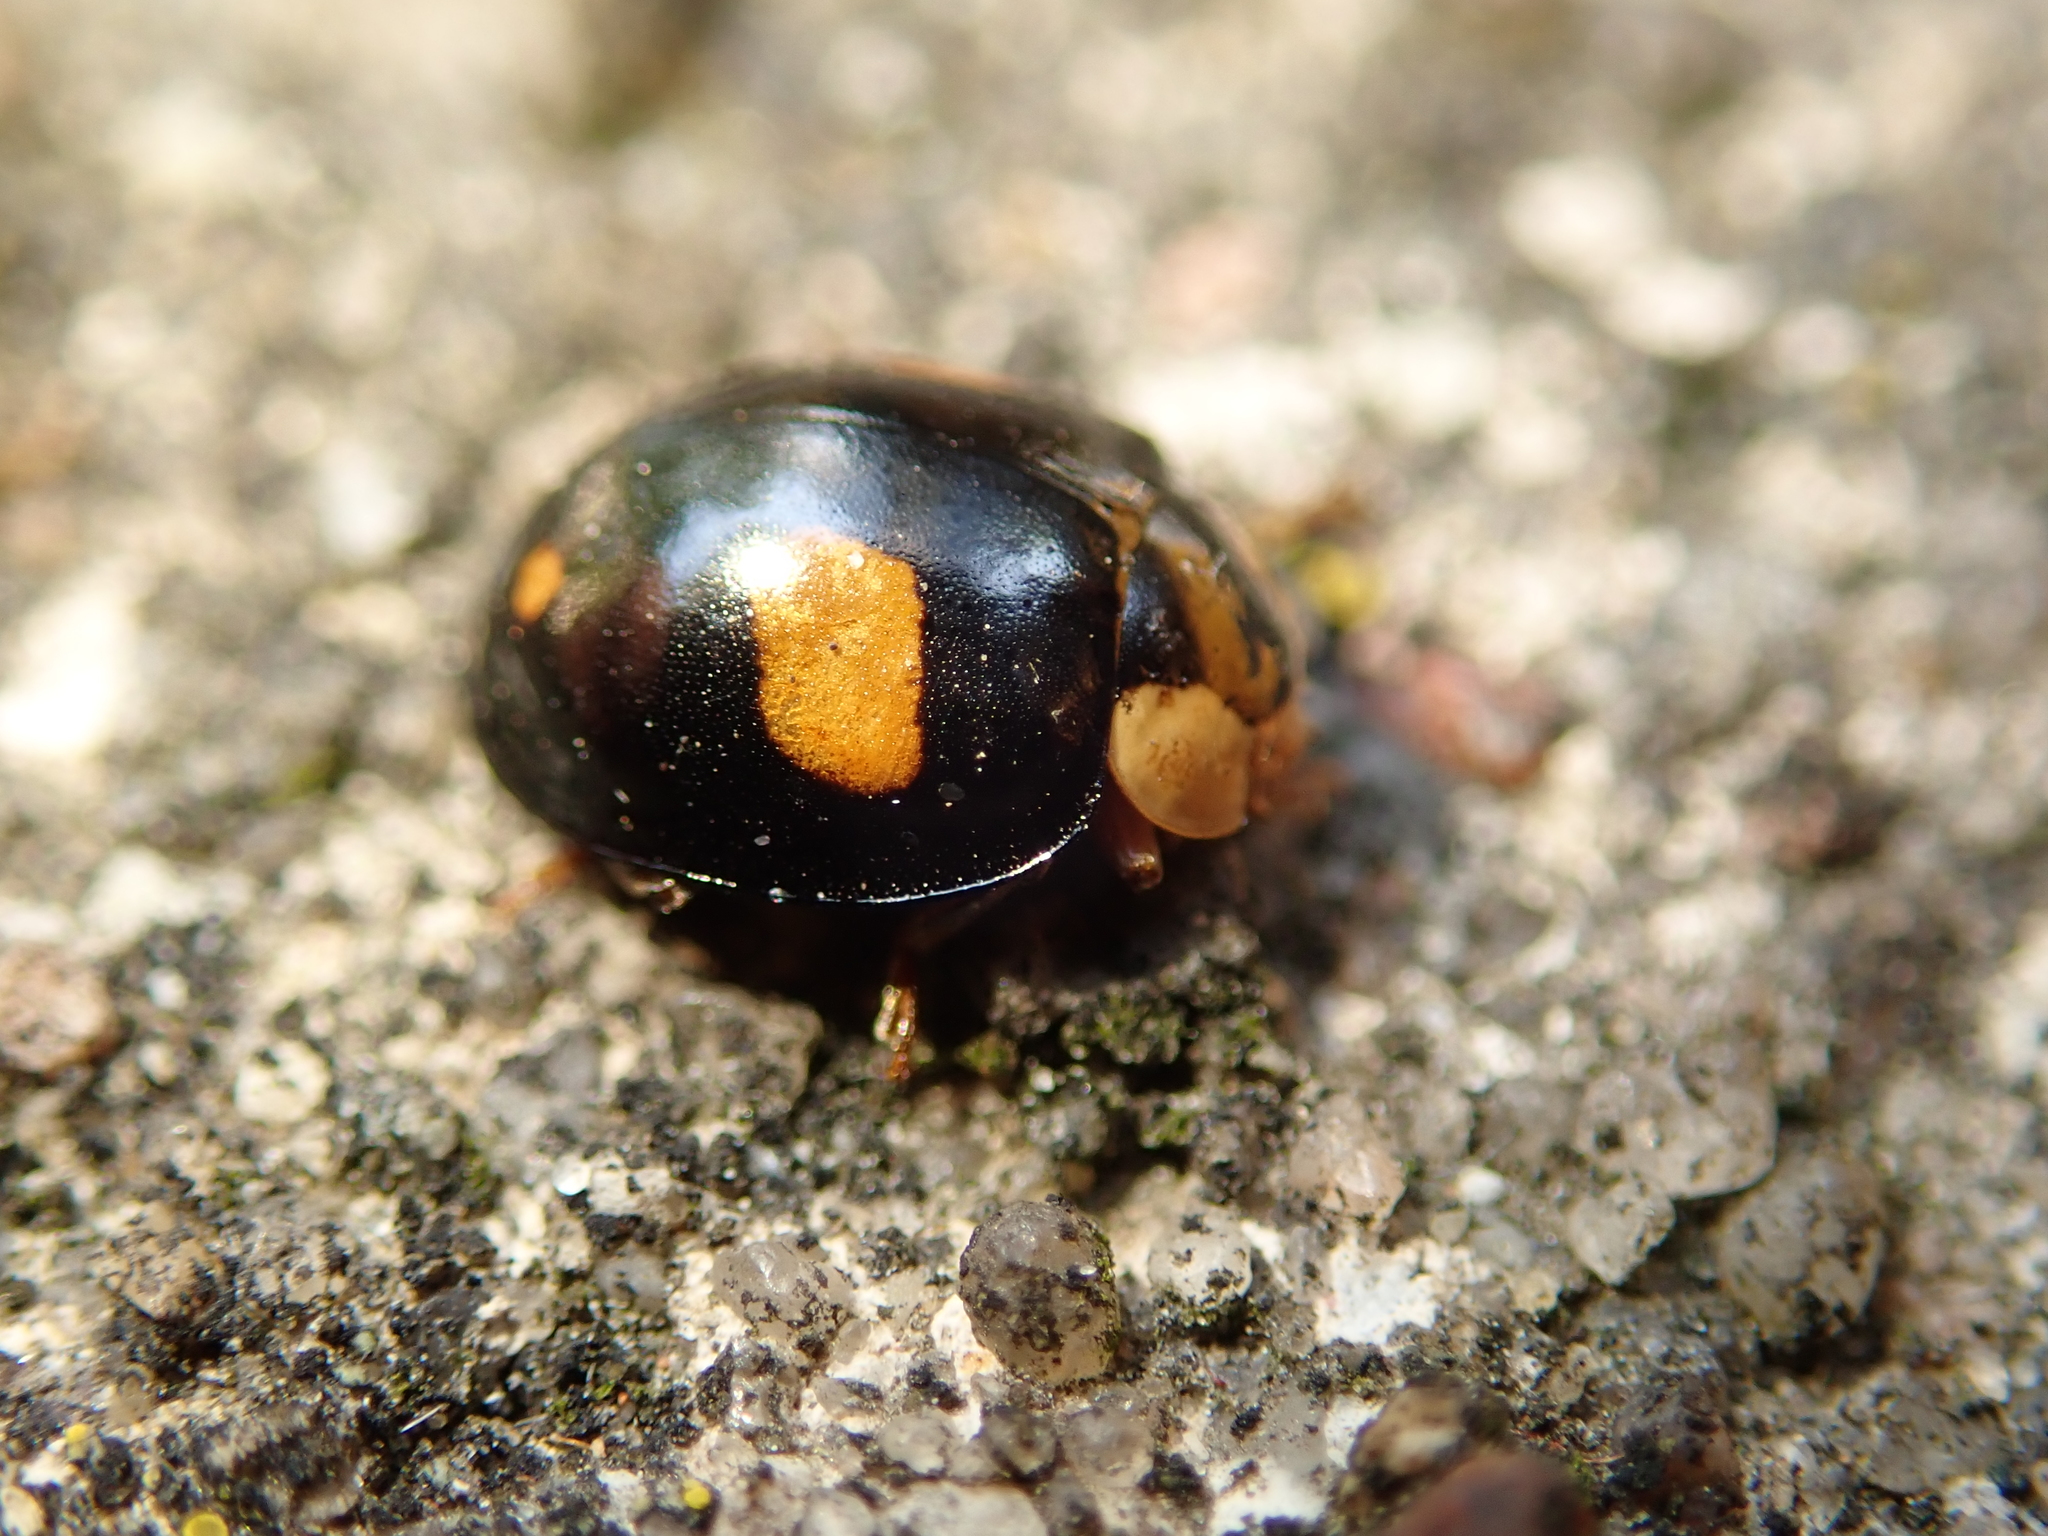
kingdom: Animalia
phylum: Arthropoda
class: Insecta
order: Coleoptera
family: Coccinellidae
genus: Harmonia
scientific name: Harmonia axyridis
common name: Harlequin ladybird
